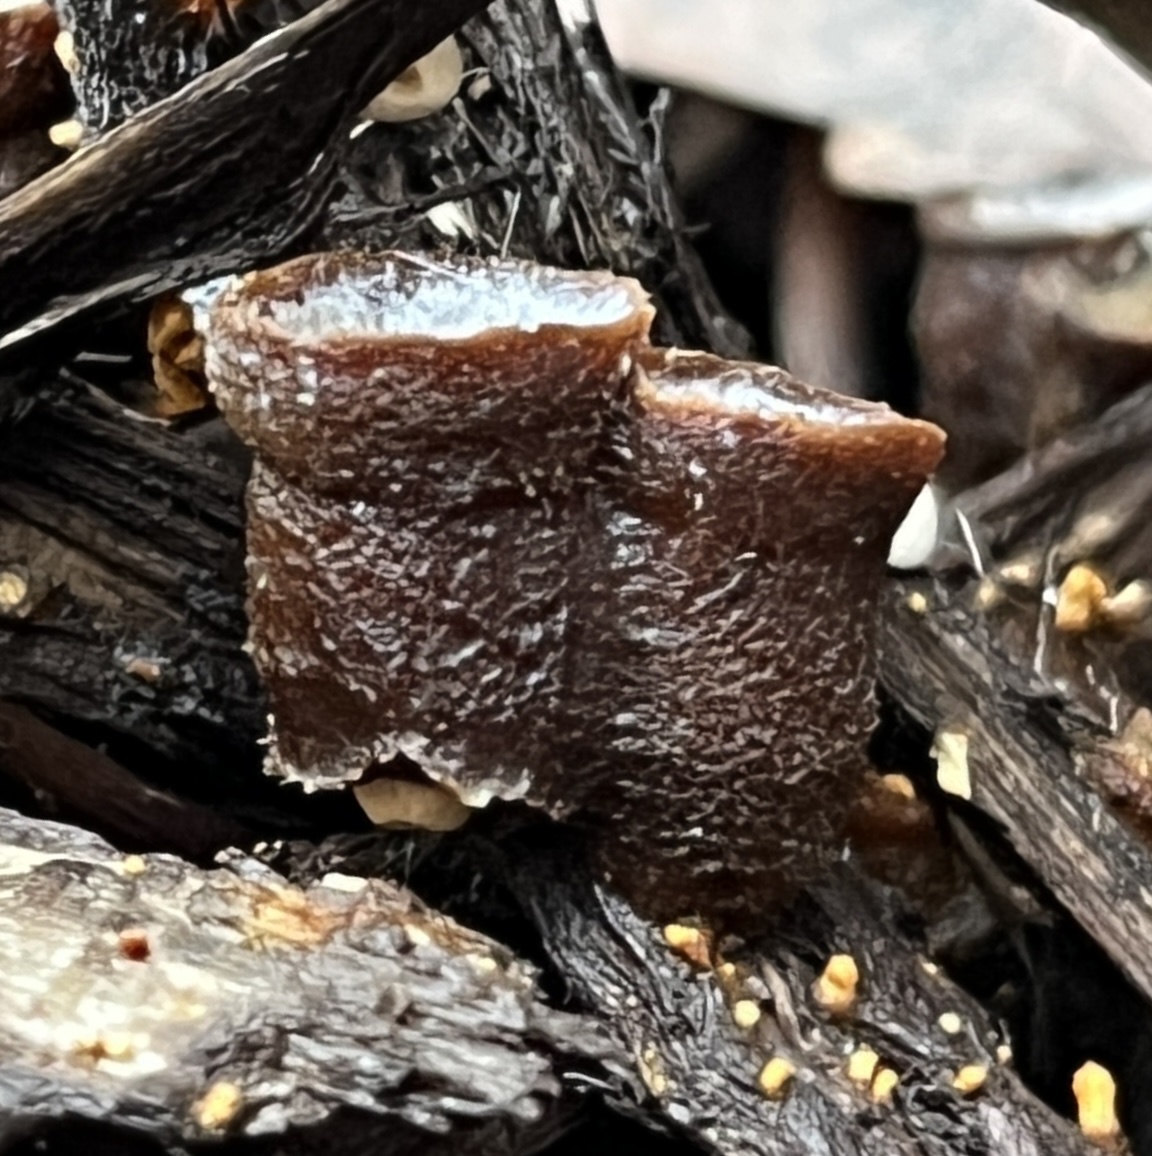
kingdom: Fungi
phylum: Basidiomycota
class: Agaricomycetes
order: Agaricales
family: Nidulariaceae
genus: Crucibulum
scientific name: Crucibulum laeve
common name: Common bird's nest
